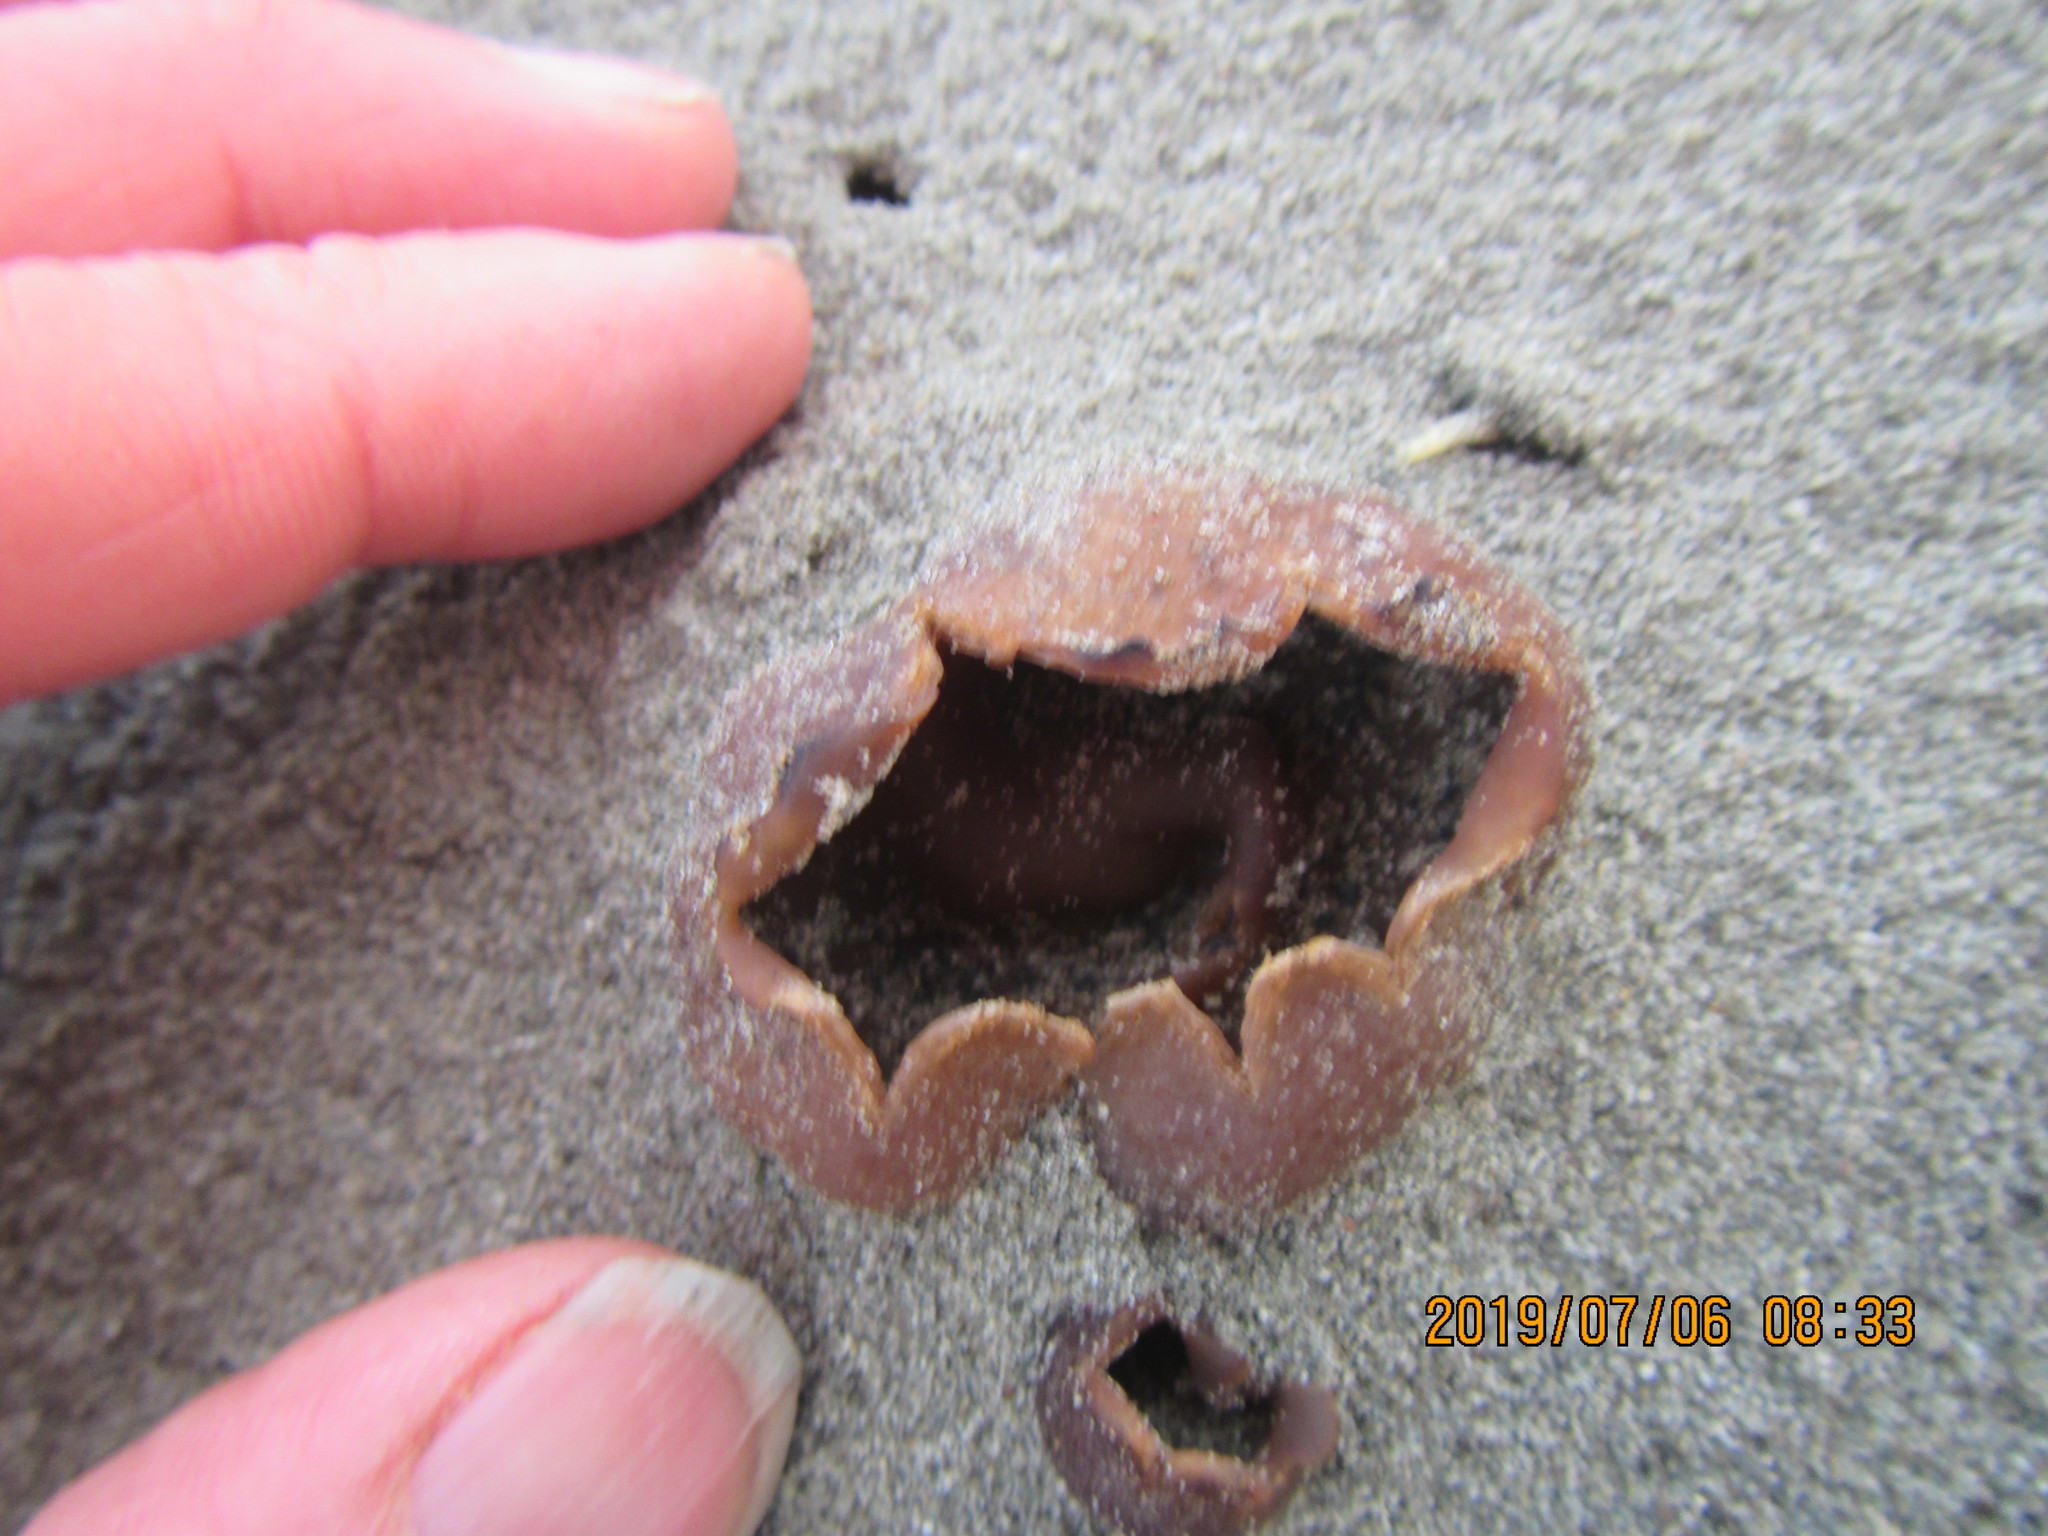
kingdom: Fungi
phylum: Ascomycota
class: Pezizomycetes
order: Pezizales
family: Pezizaceae
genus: Peziza
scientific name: Peziza oceanica
